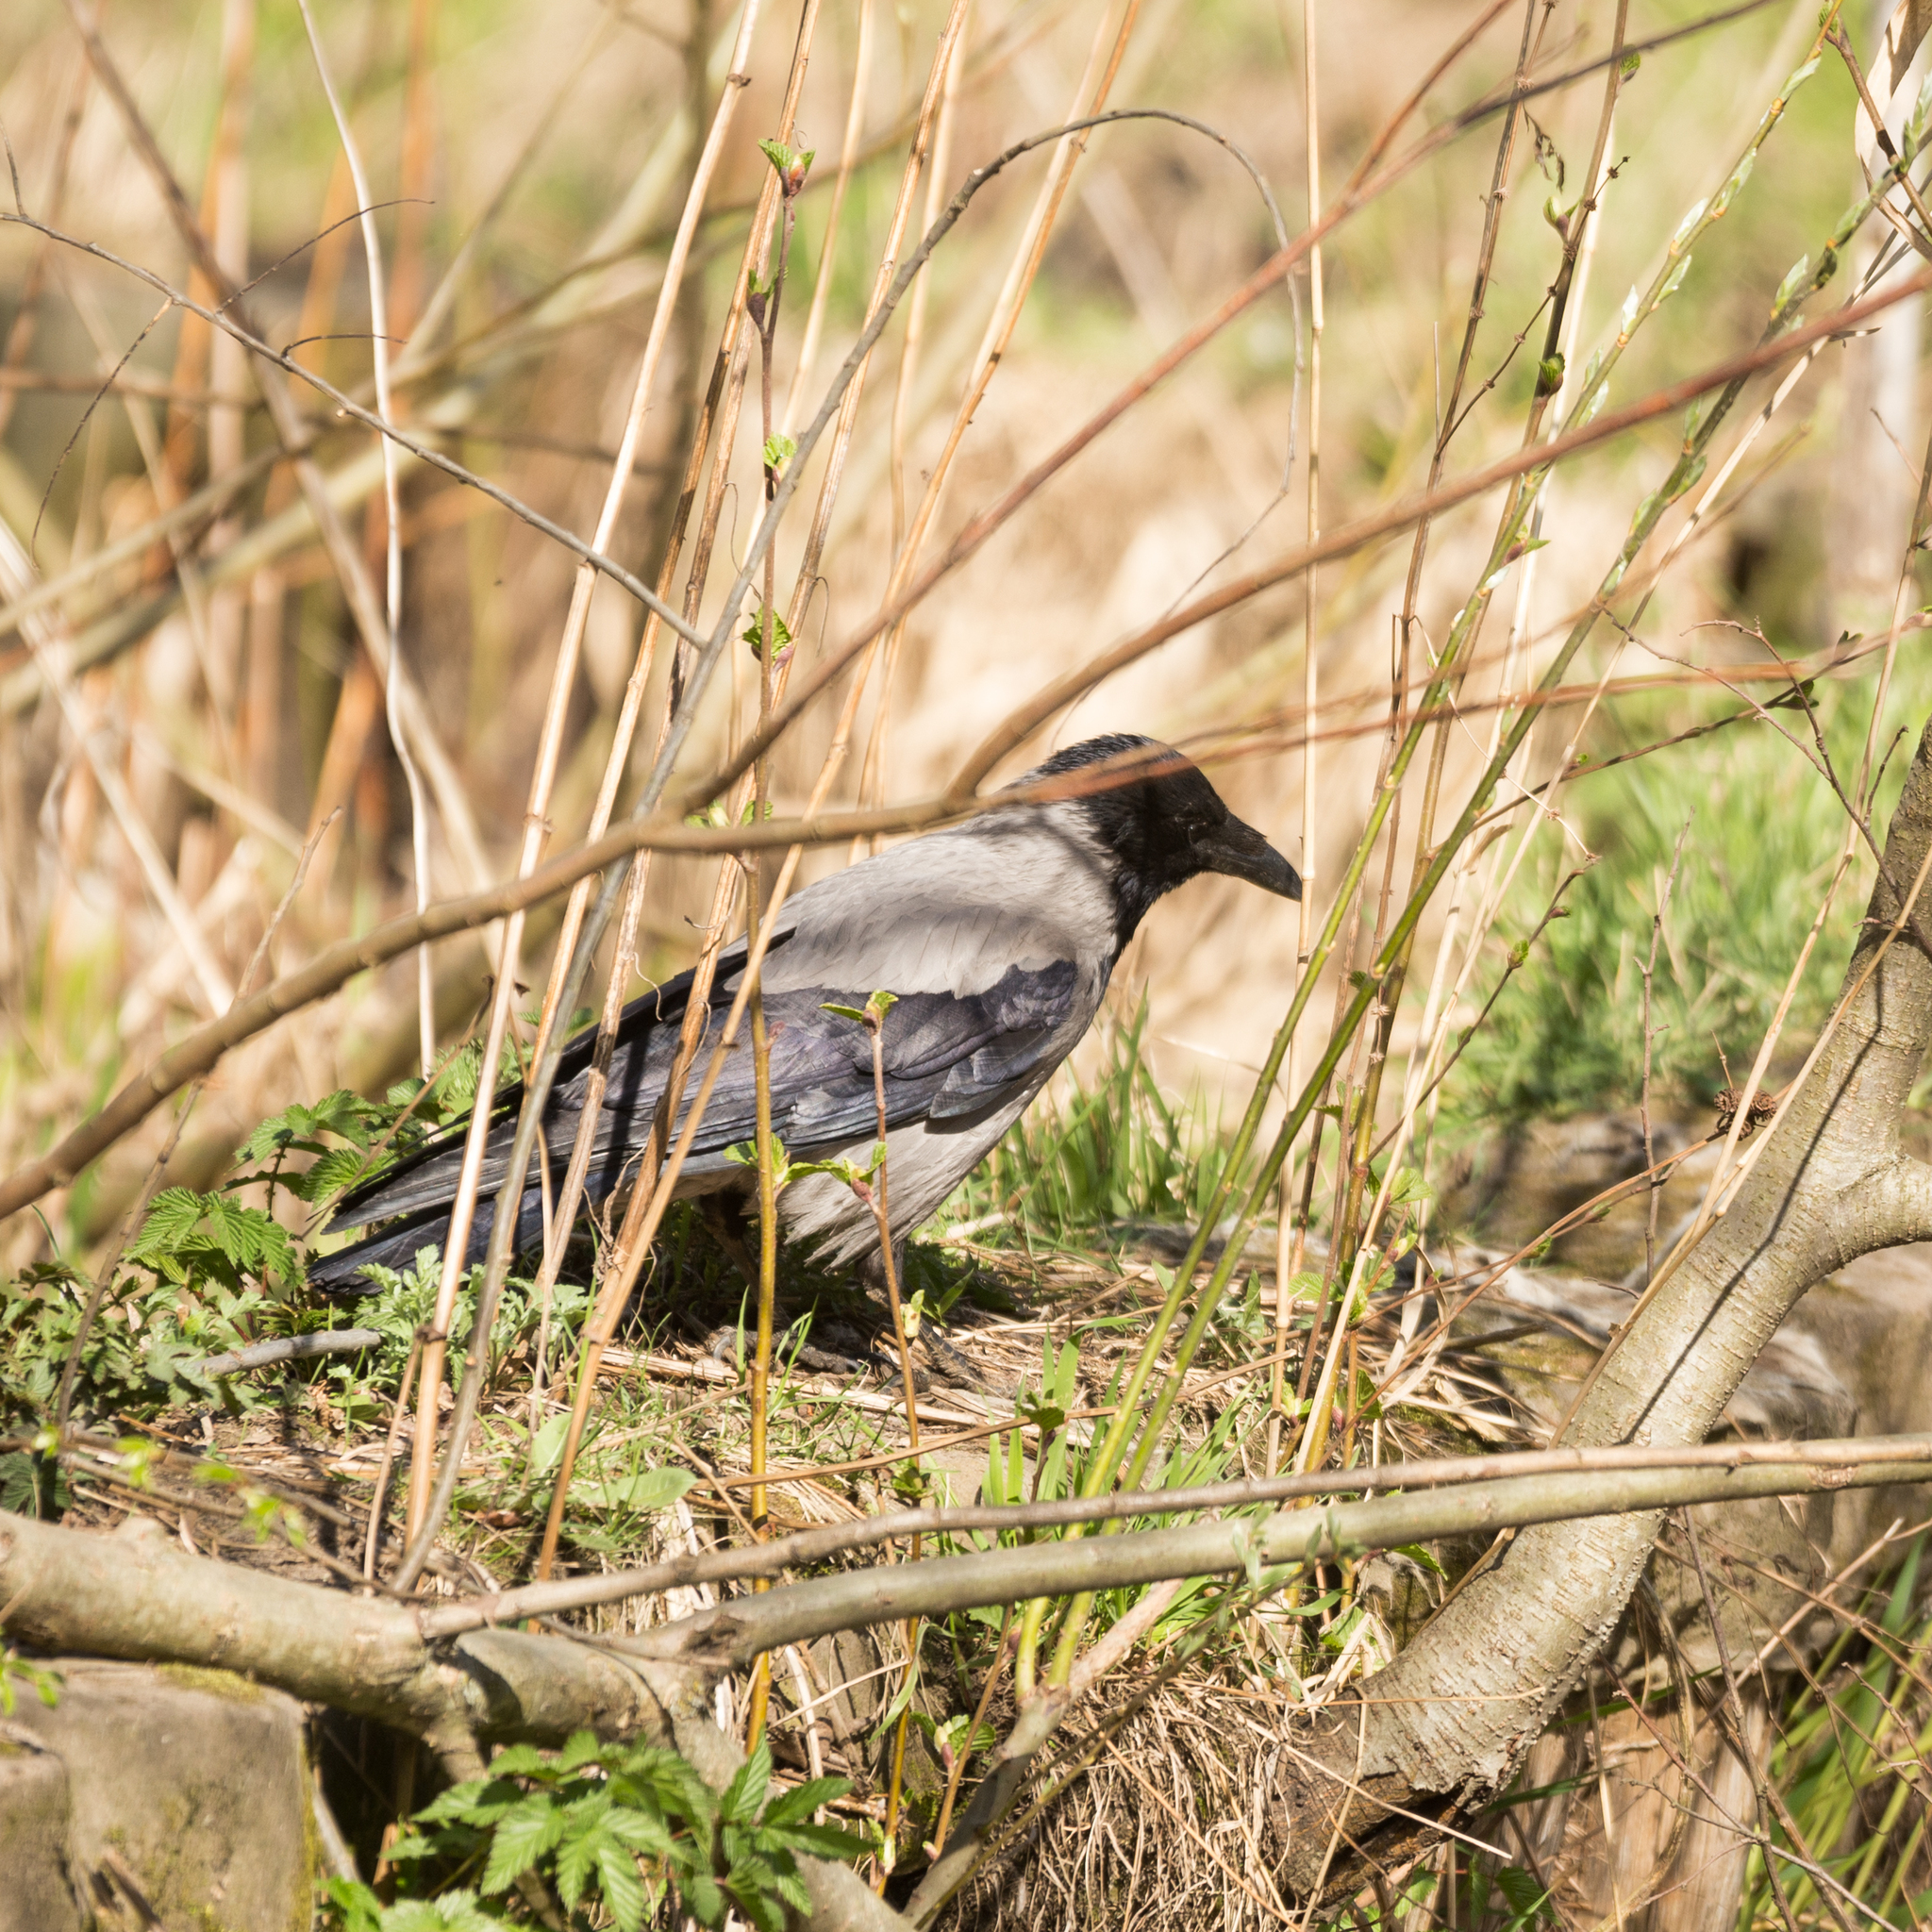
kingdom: Animalia
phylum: Chordata
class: Aves
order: Passeriformes
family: Corvidae
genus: Corvus
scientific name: Corvus cornix
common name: Hooded crow
